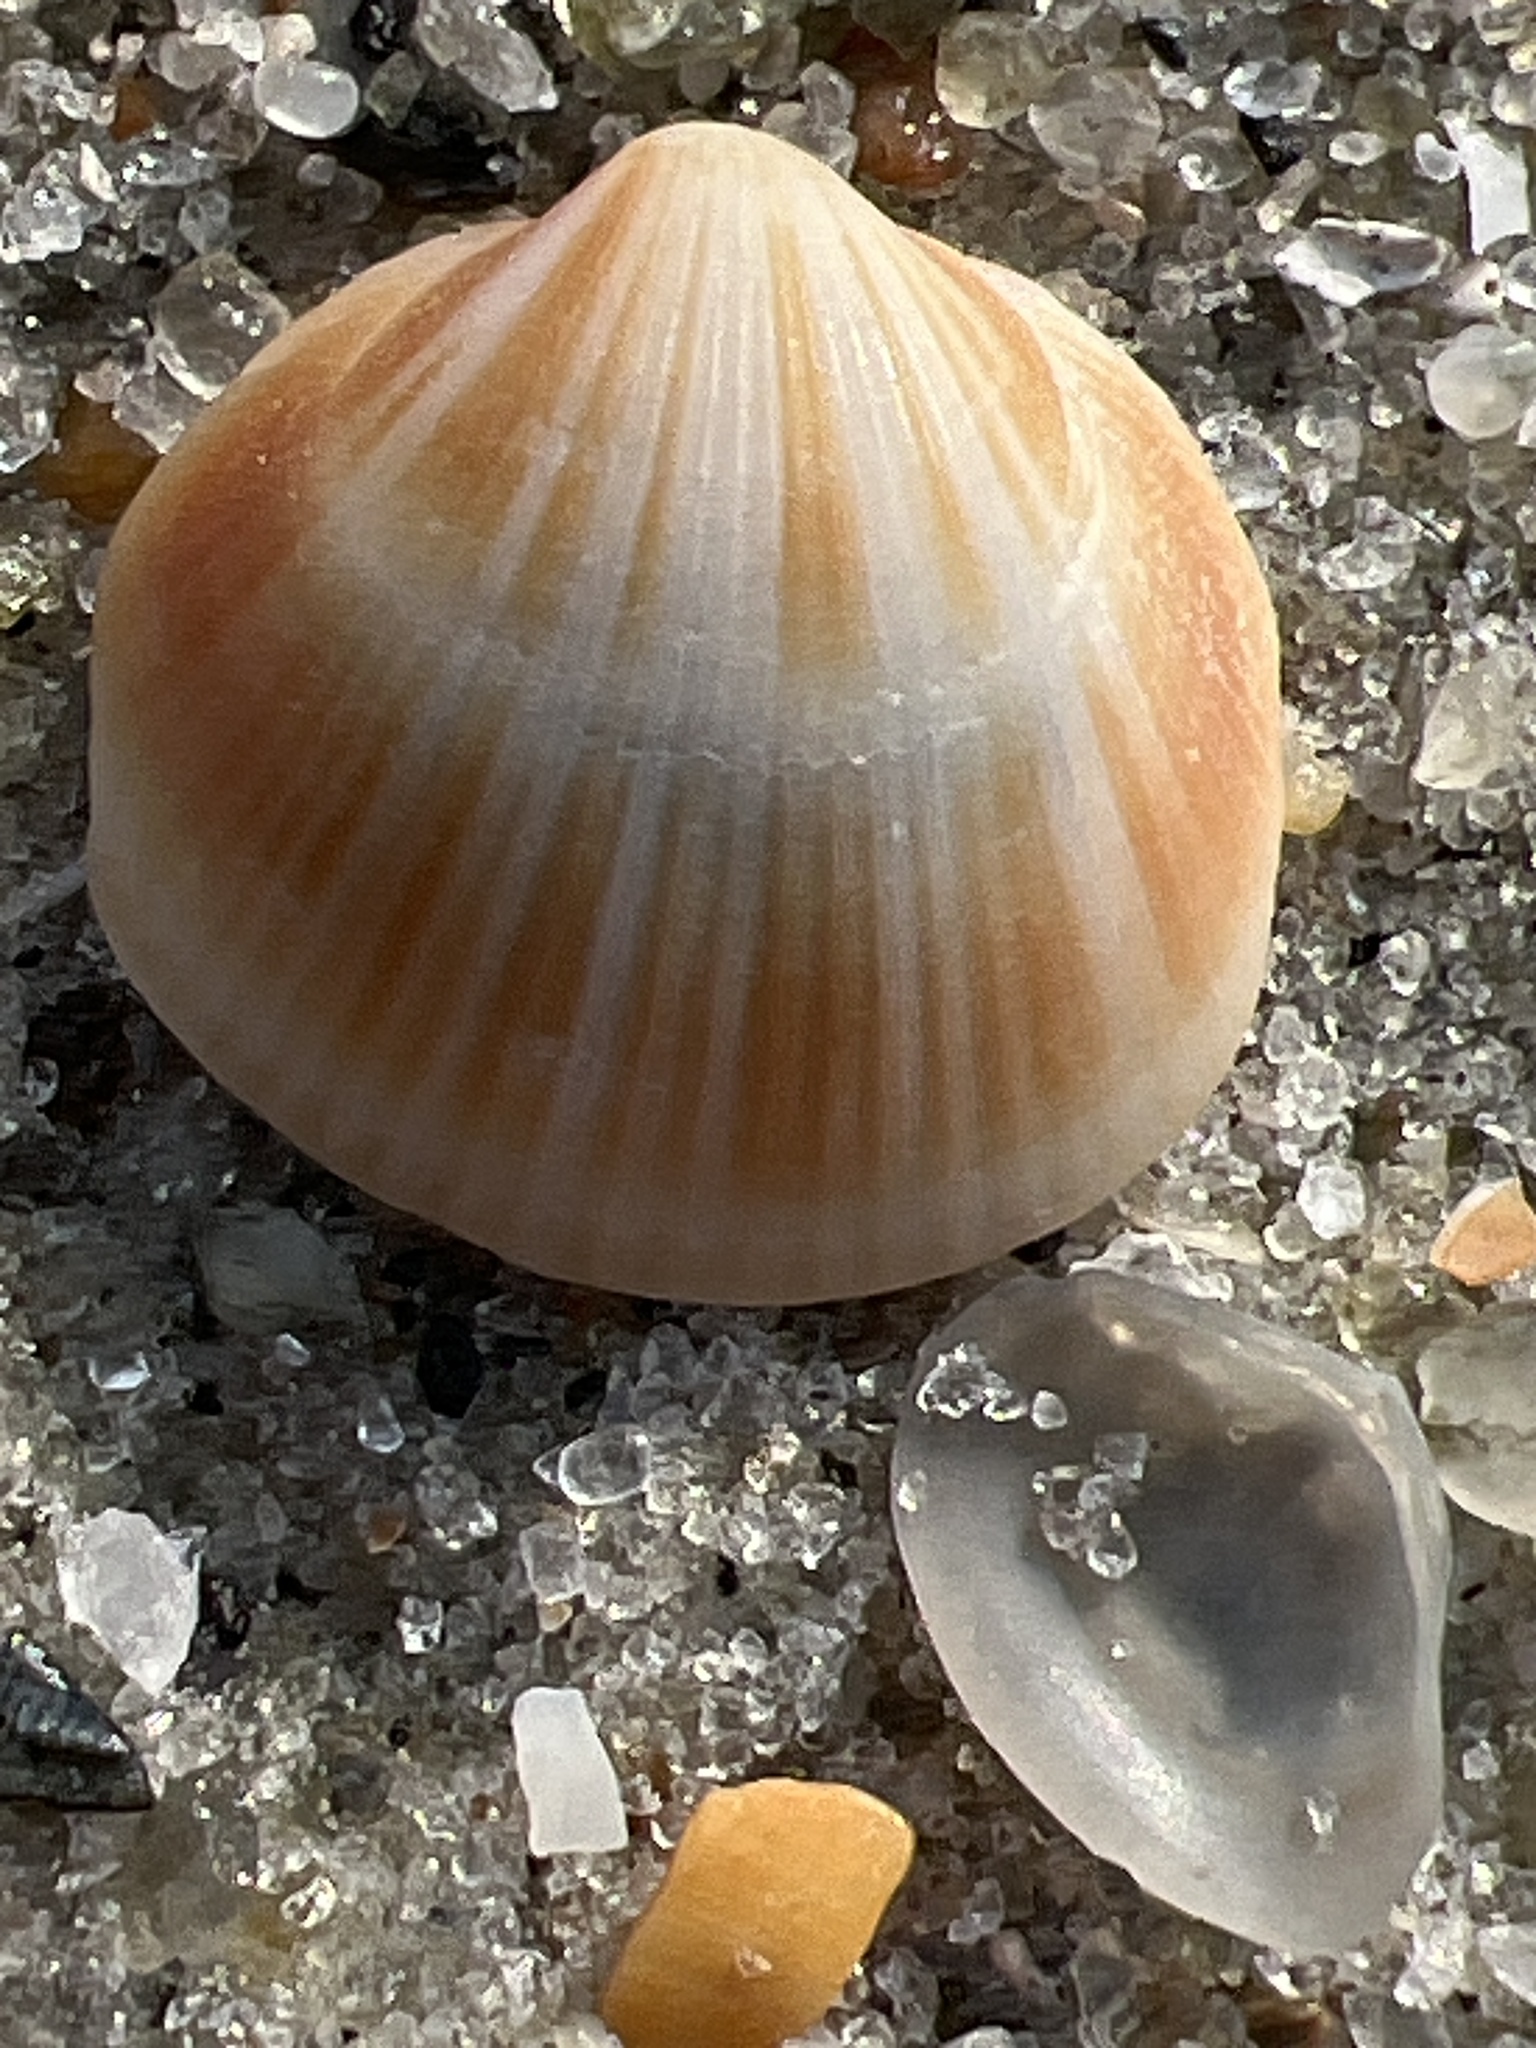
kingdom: Animalia
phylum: Mollusca
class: Bivalvia
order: Arcida
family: Glycymerididae
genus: Glycymeris
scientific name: Glycymeris spectralis
